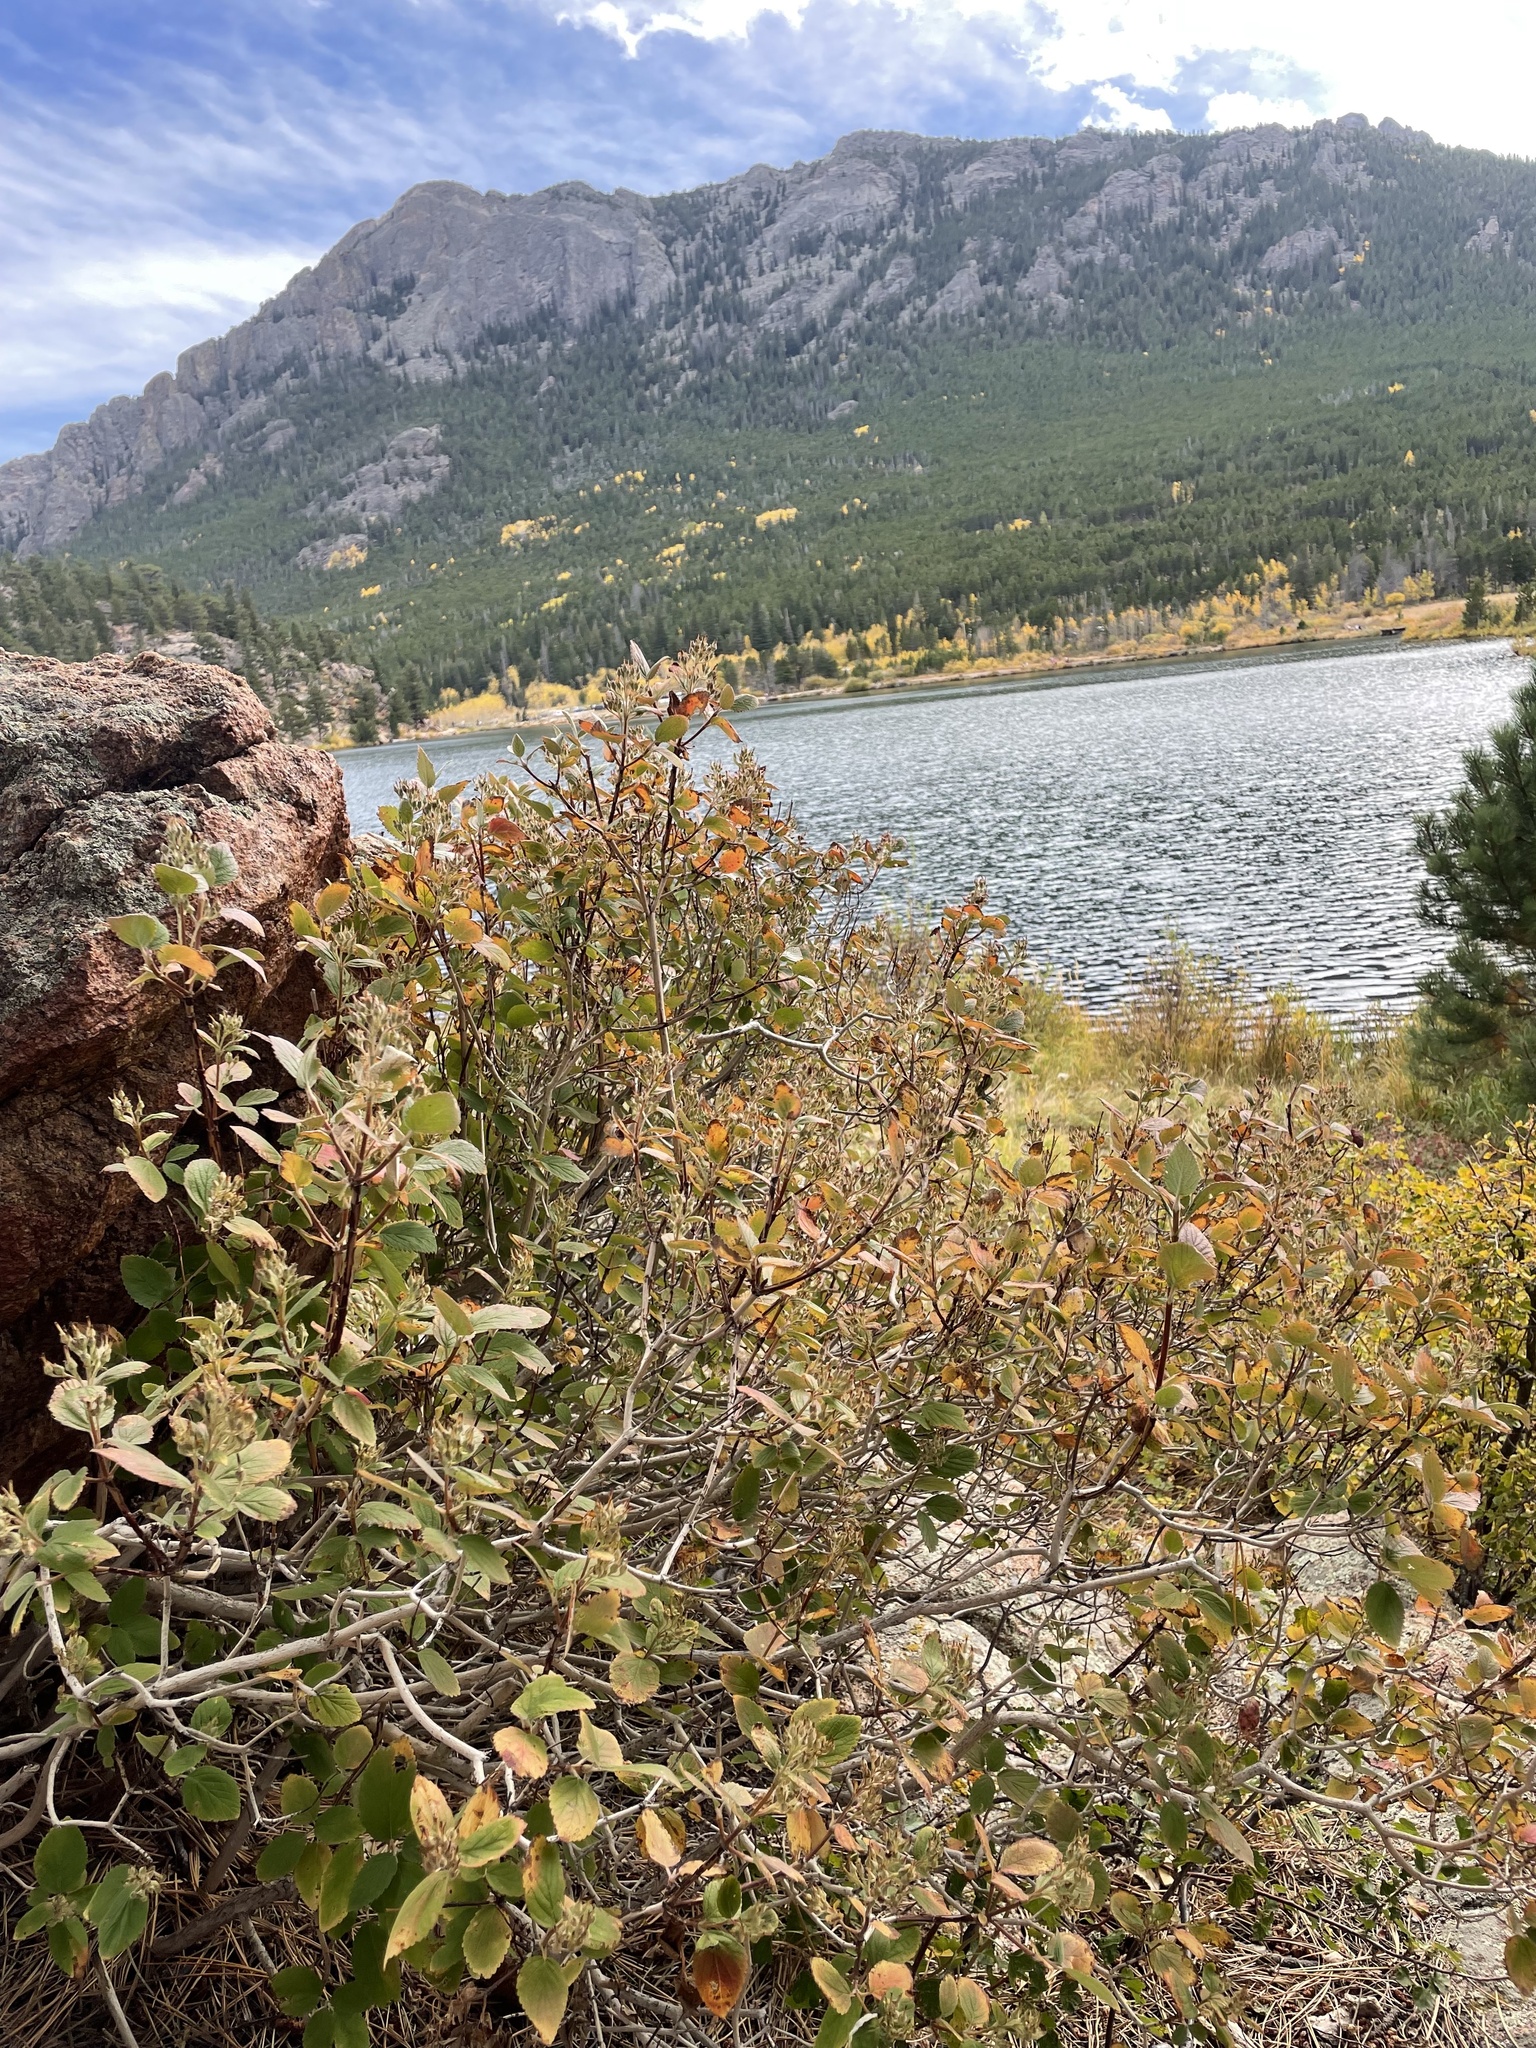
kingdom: Plantae
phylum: Tracheophyta
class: Magnoliopsida
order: Cornales
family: Hydrangeaceae
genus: Jamesia
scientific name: Jamesia americana
